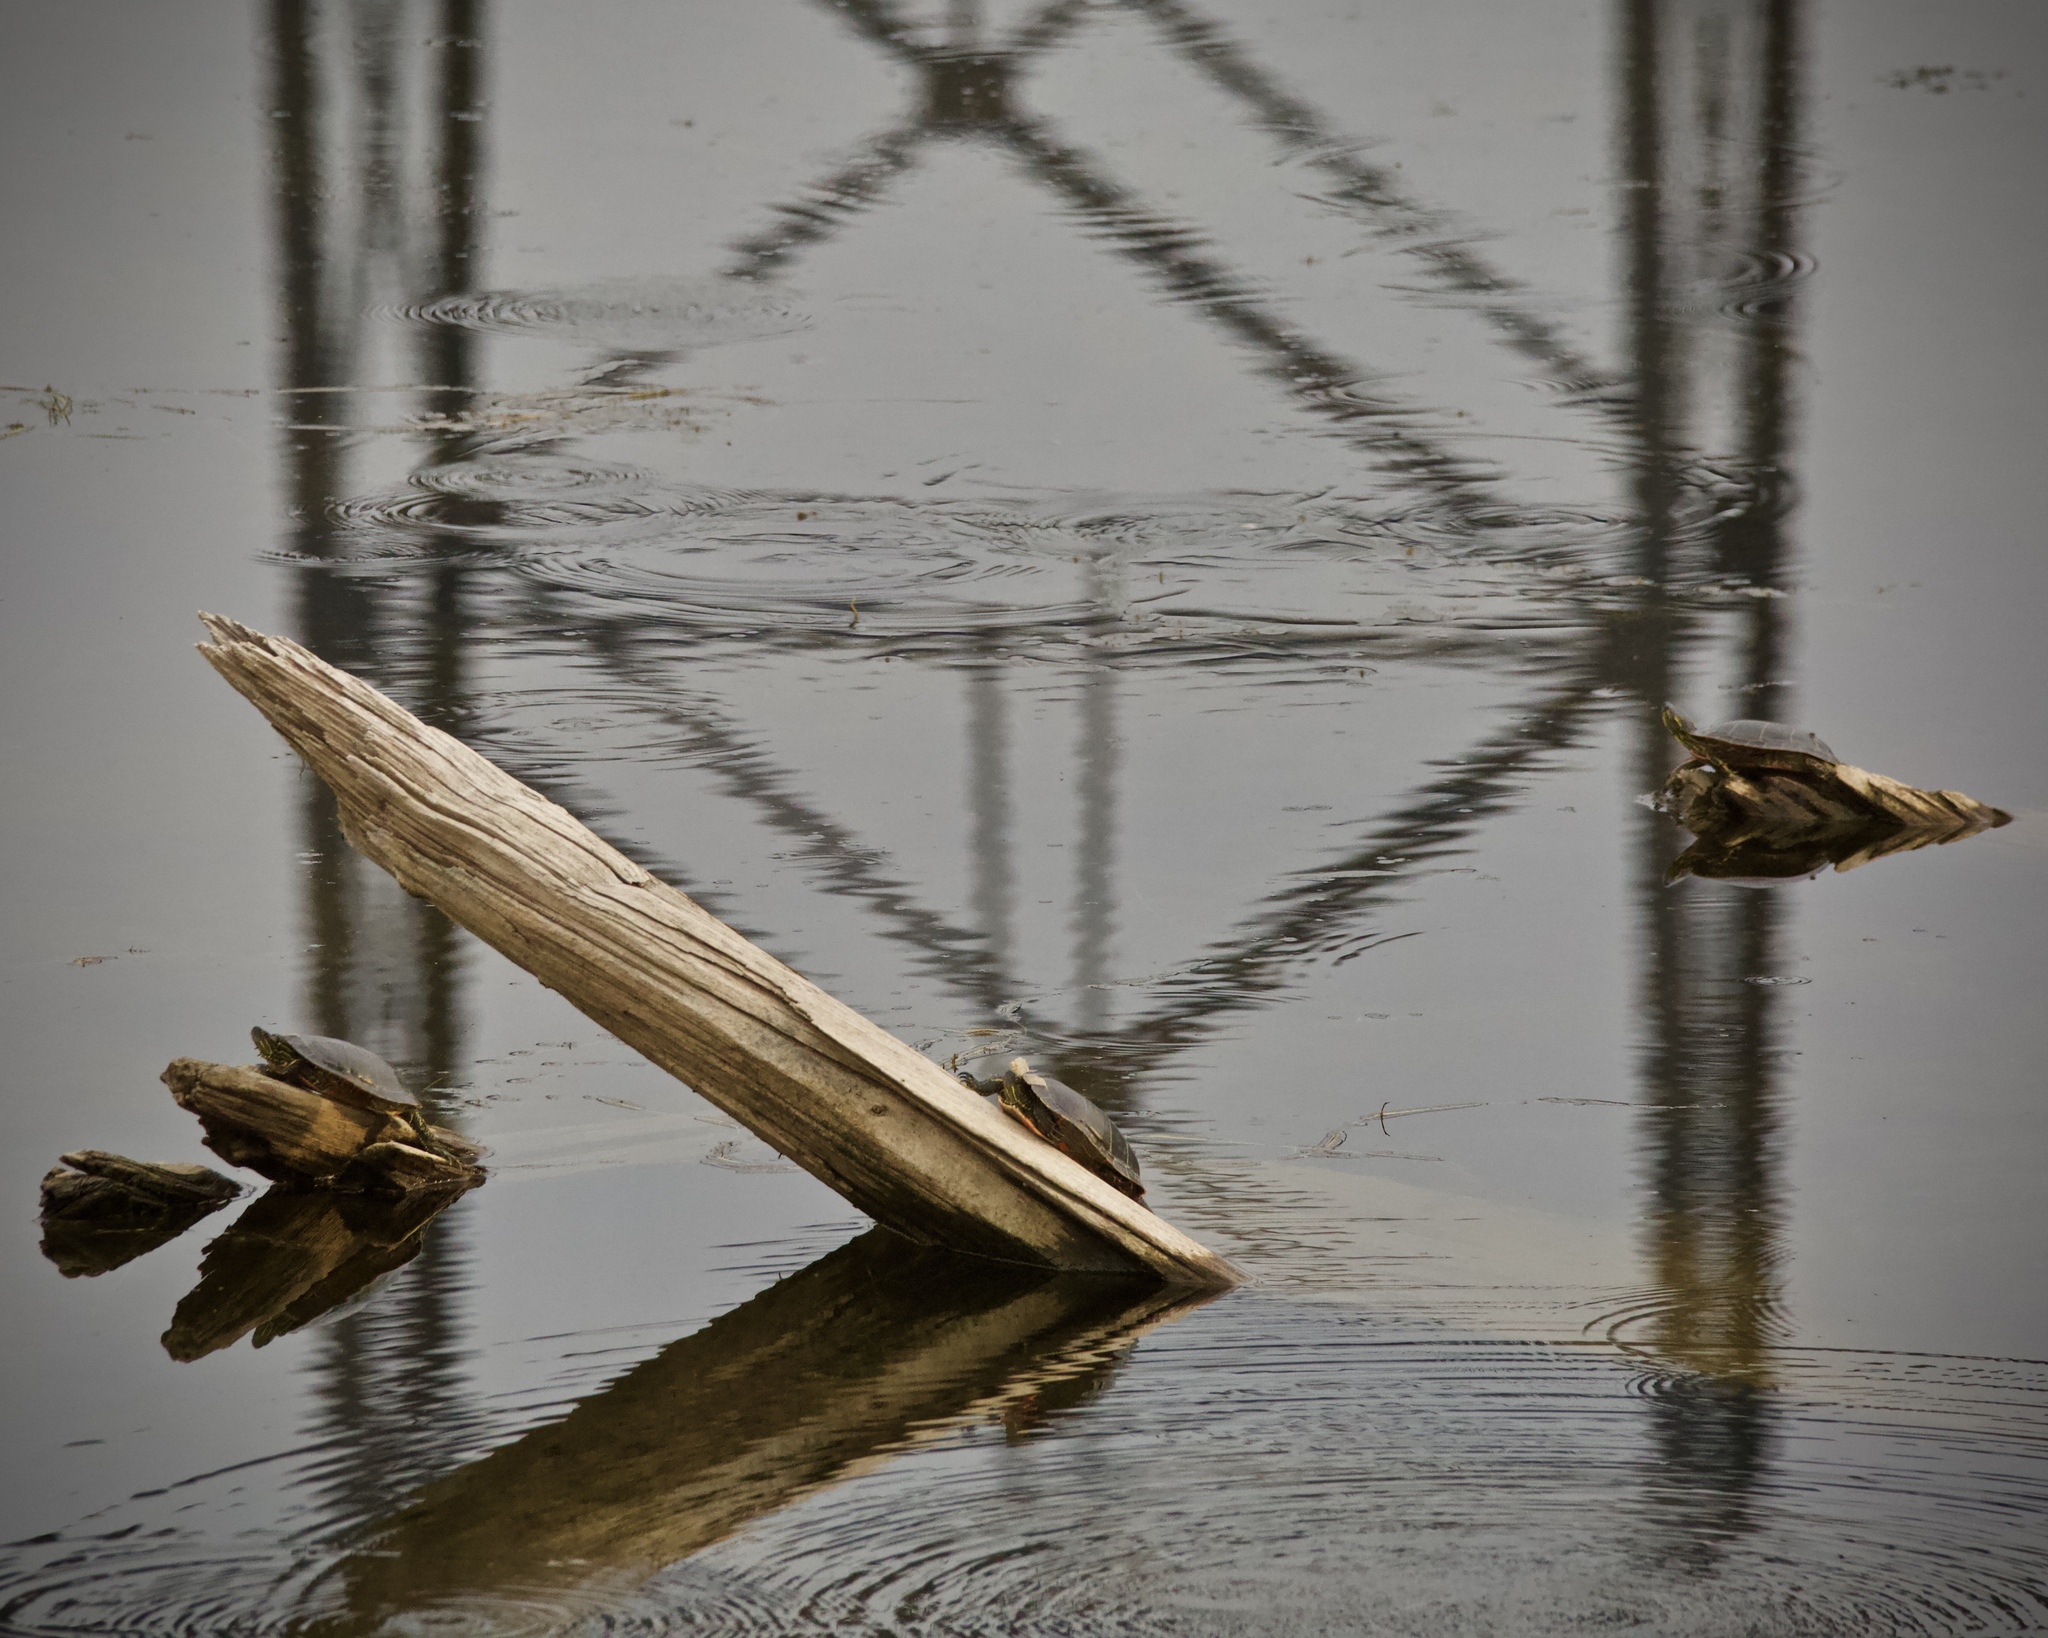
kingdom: Animalia
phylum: Chordata
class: Testudines
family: Emydidae
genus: Chrysemys
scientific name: Chrysemys picta
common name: Painted turtle
